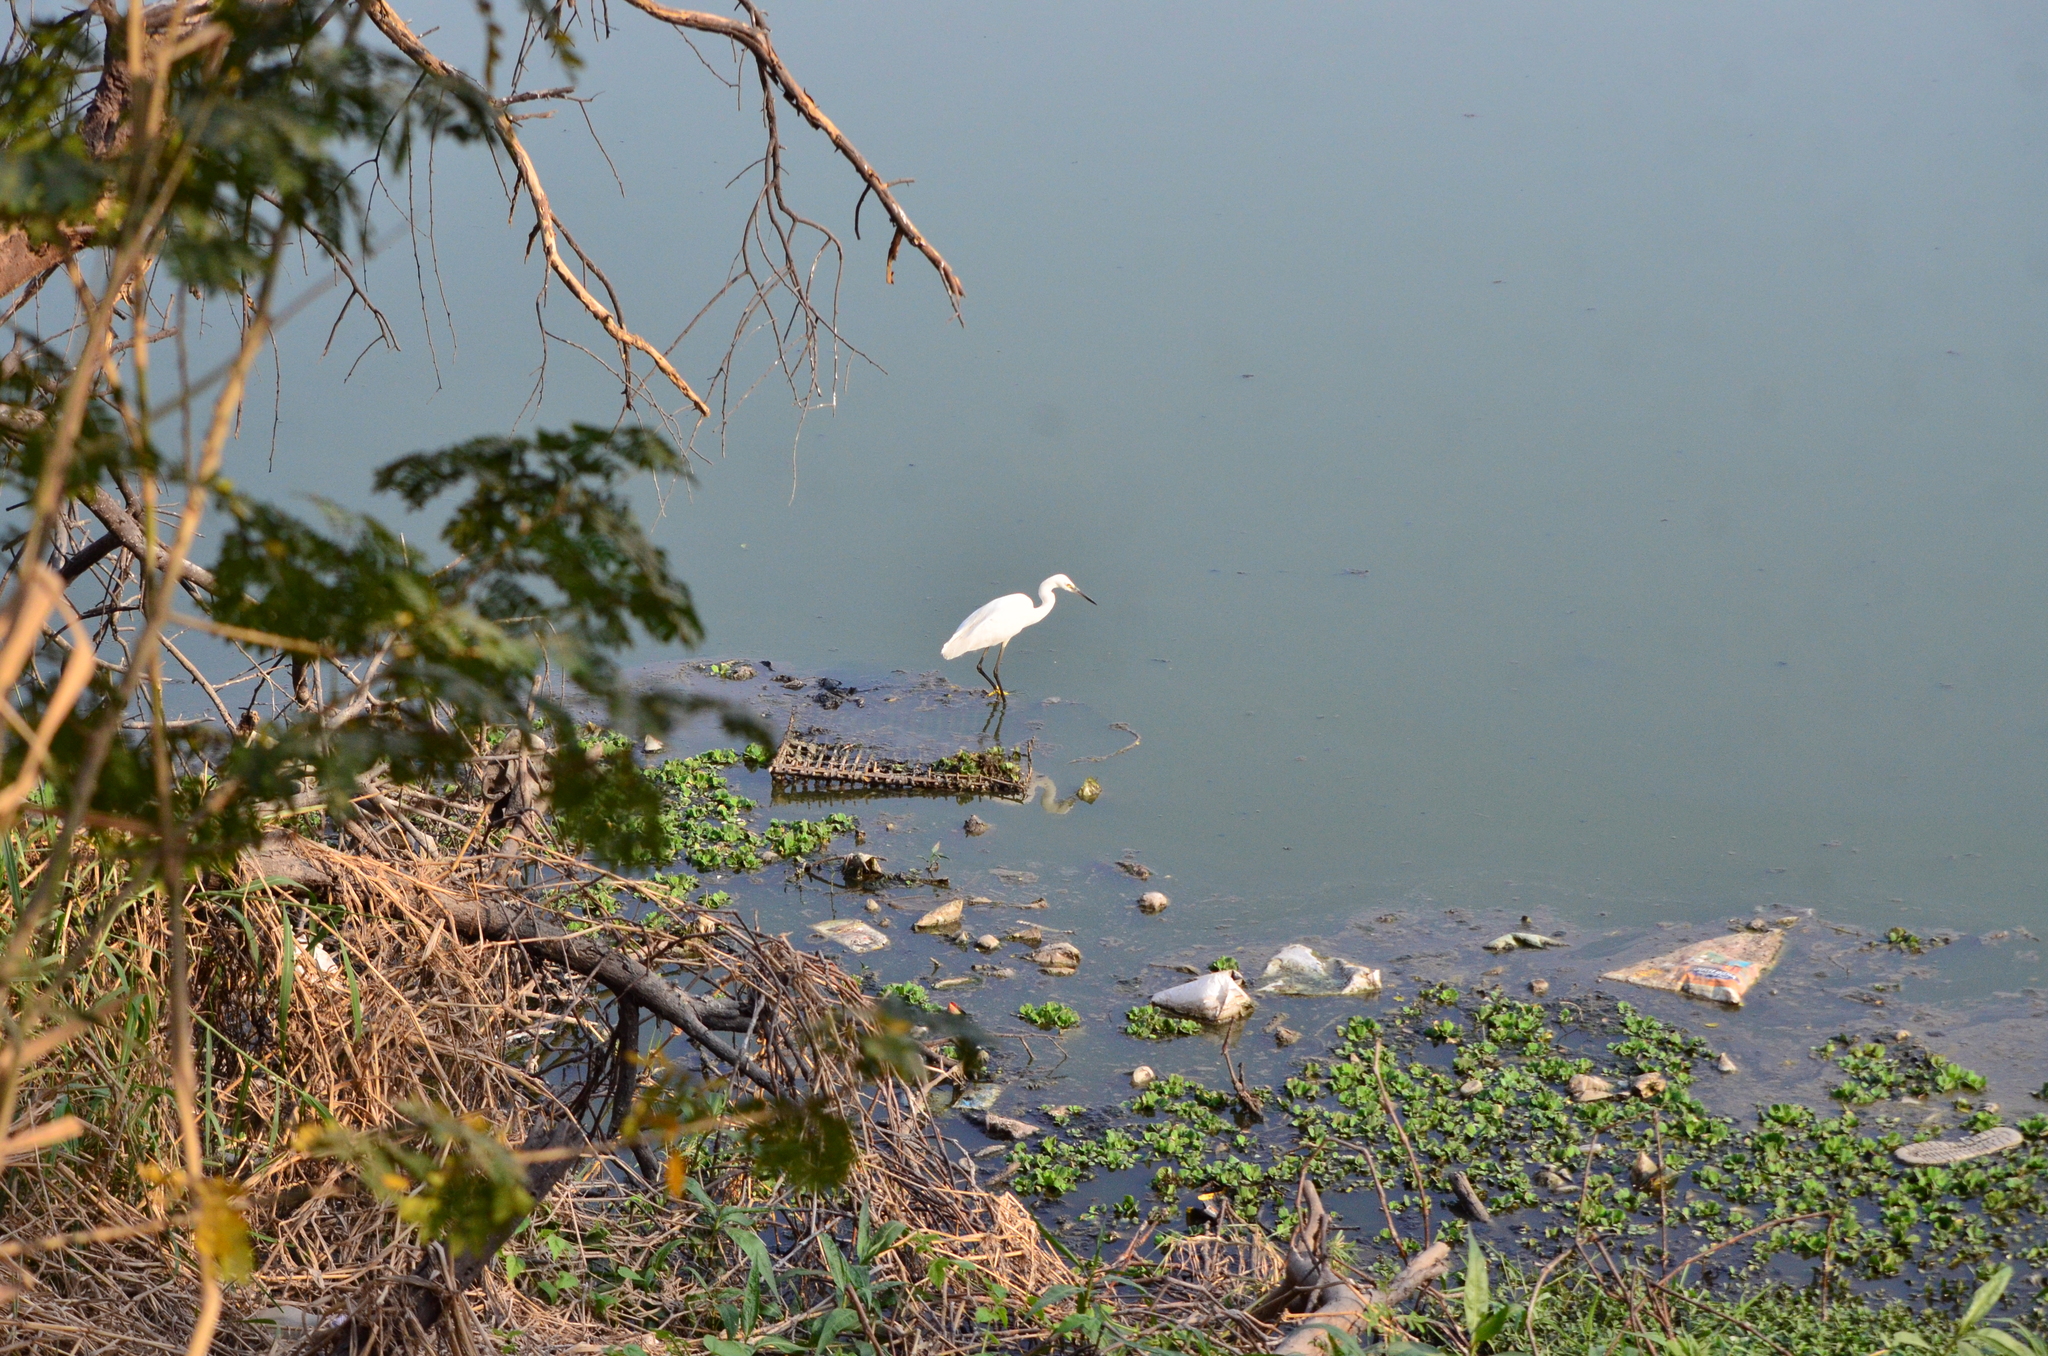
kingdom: Animalia
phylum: Chordata
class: Aves
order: Pelecaniformes
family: Ardeidae
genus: Egretta
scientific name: Egretta garzetta
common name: Little egret
